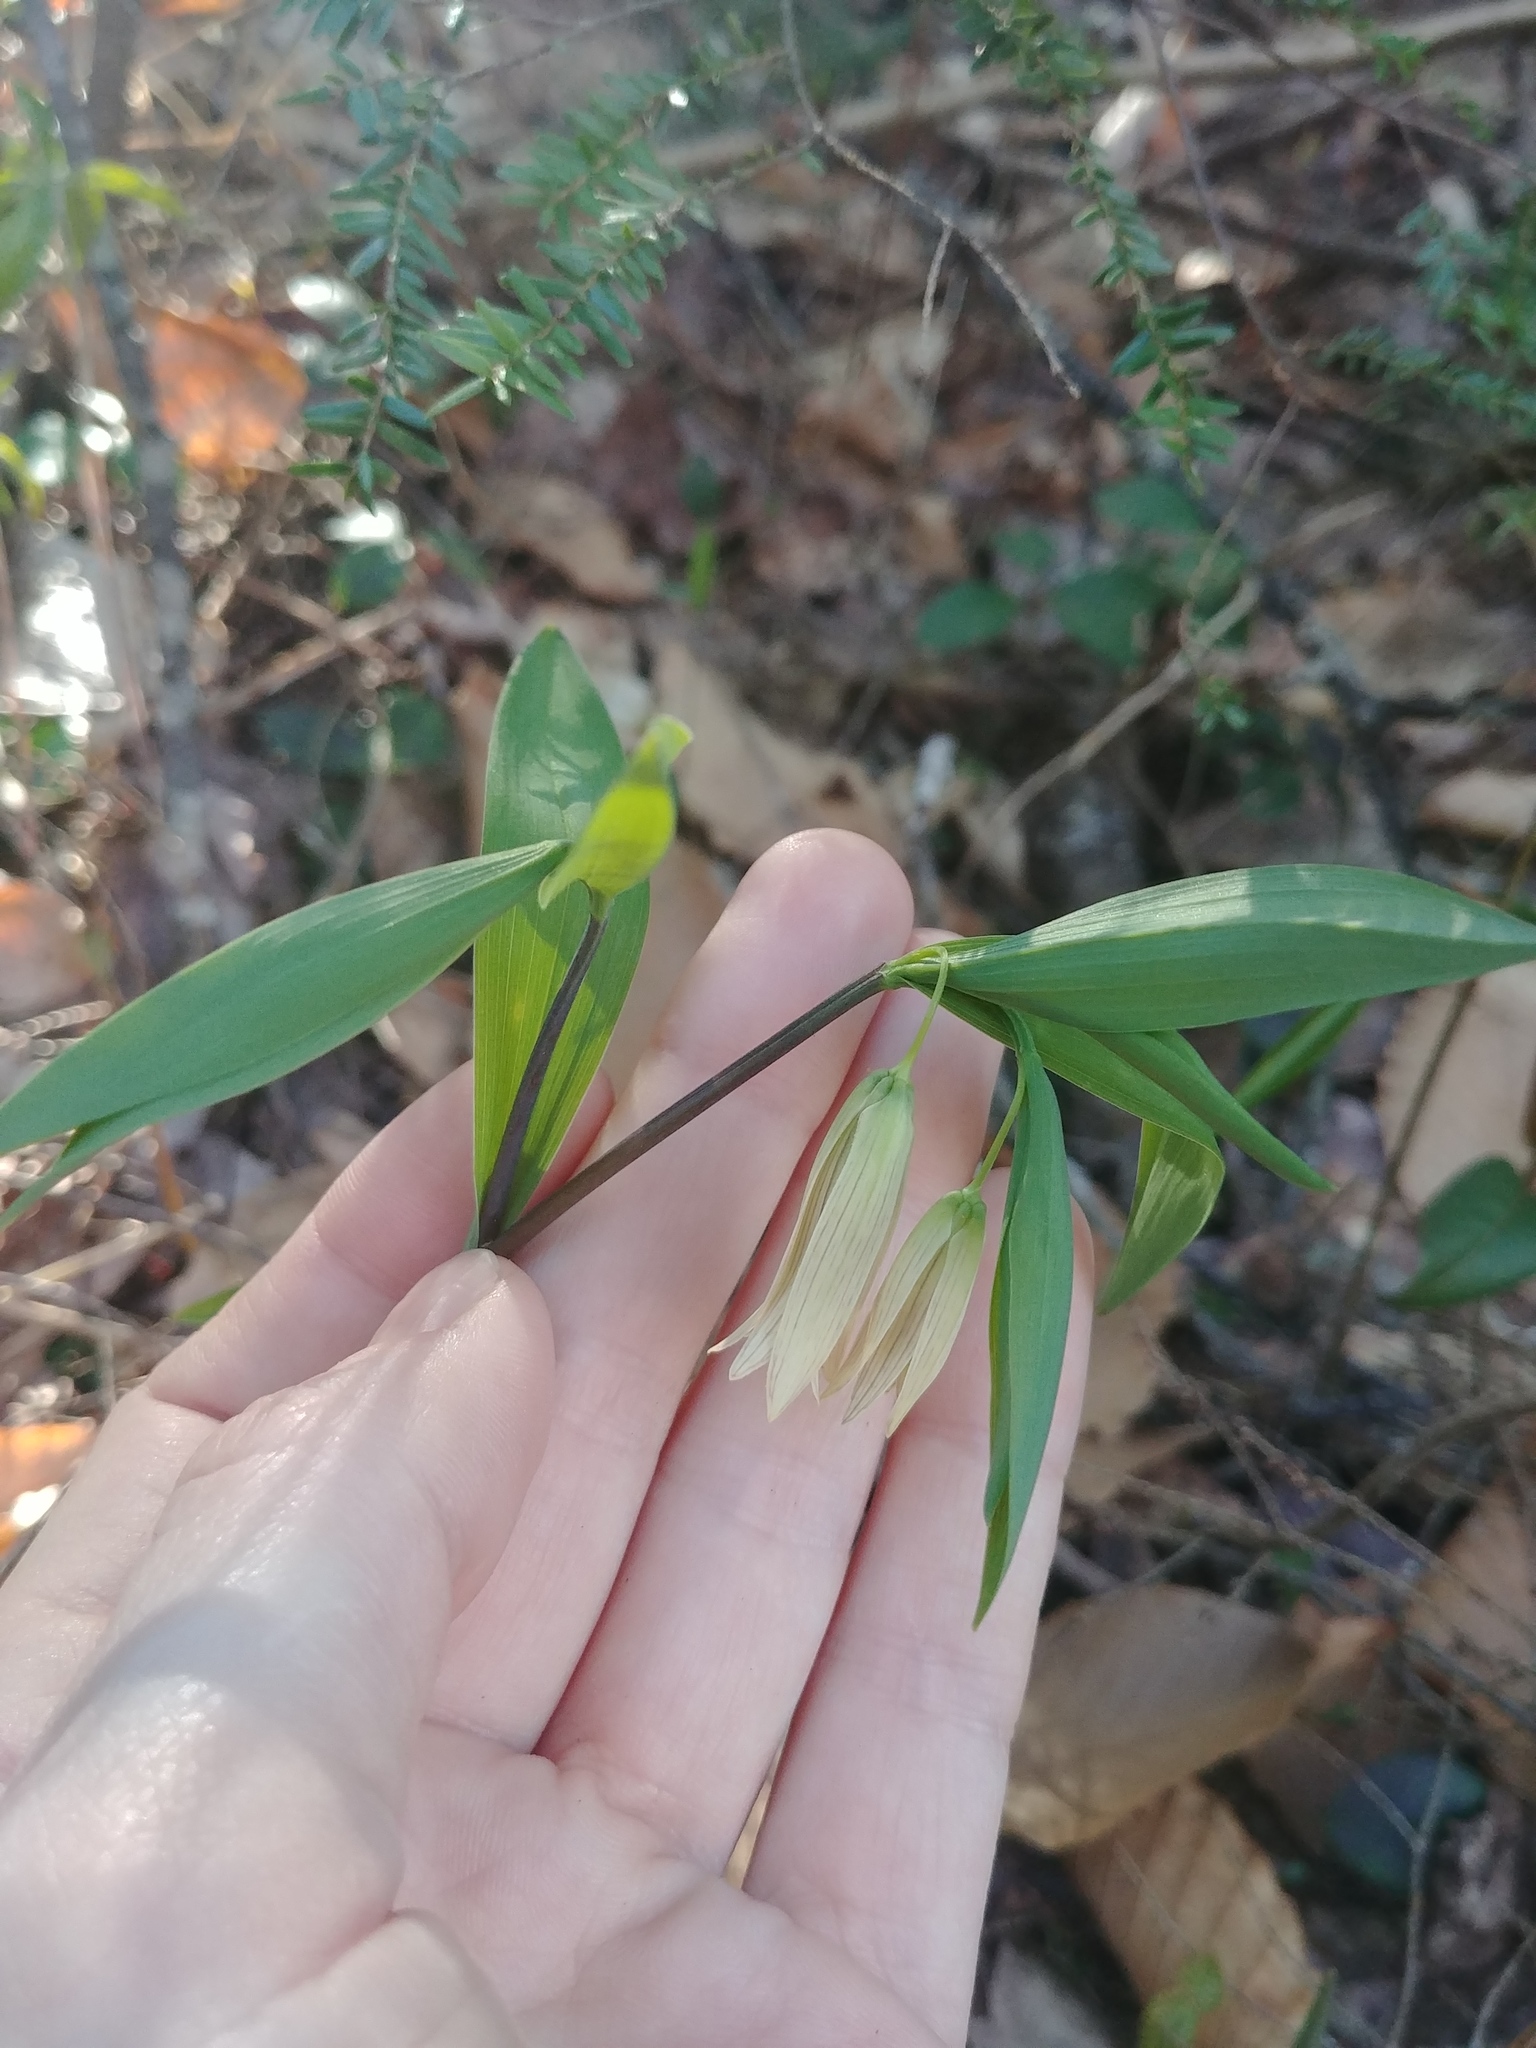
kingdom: Plantae
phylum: Tracheophyta
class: Liliopsida
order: Liliales
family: Colchicaceae
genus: Uvularia
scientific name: Uvularia sessilifolia
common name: Straw-lily
